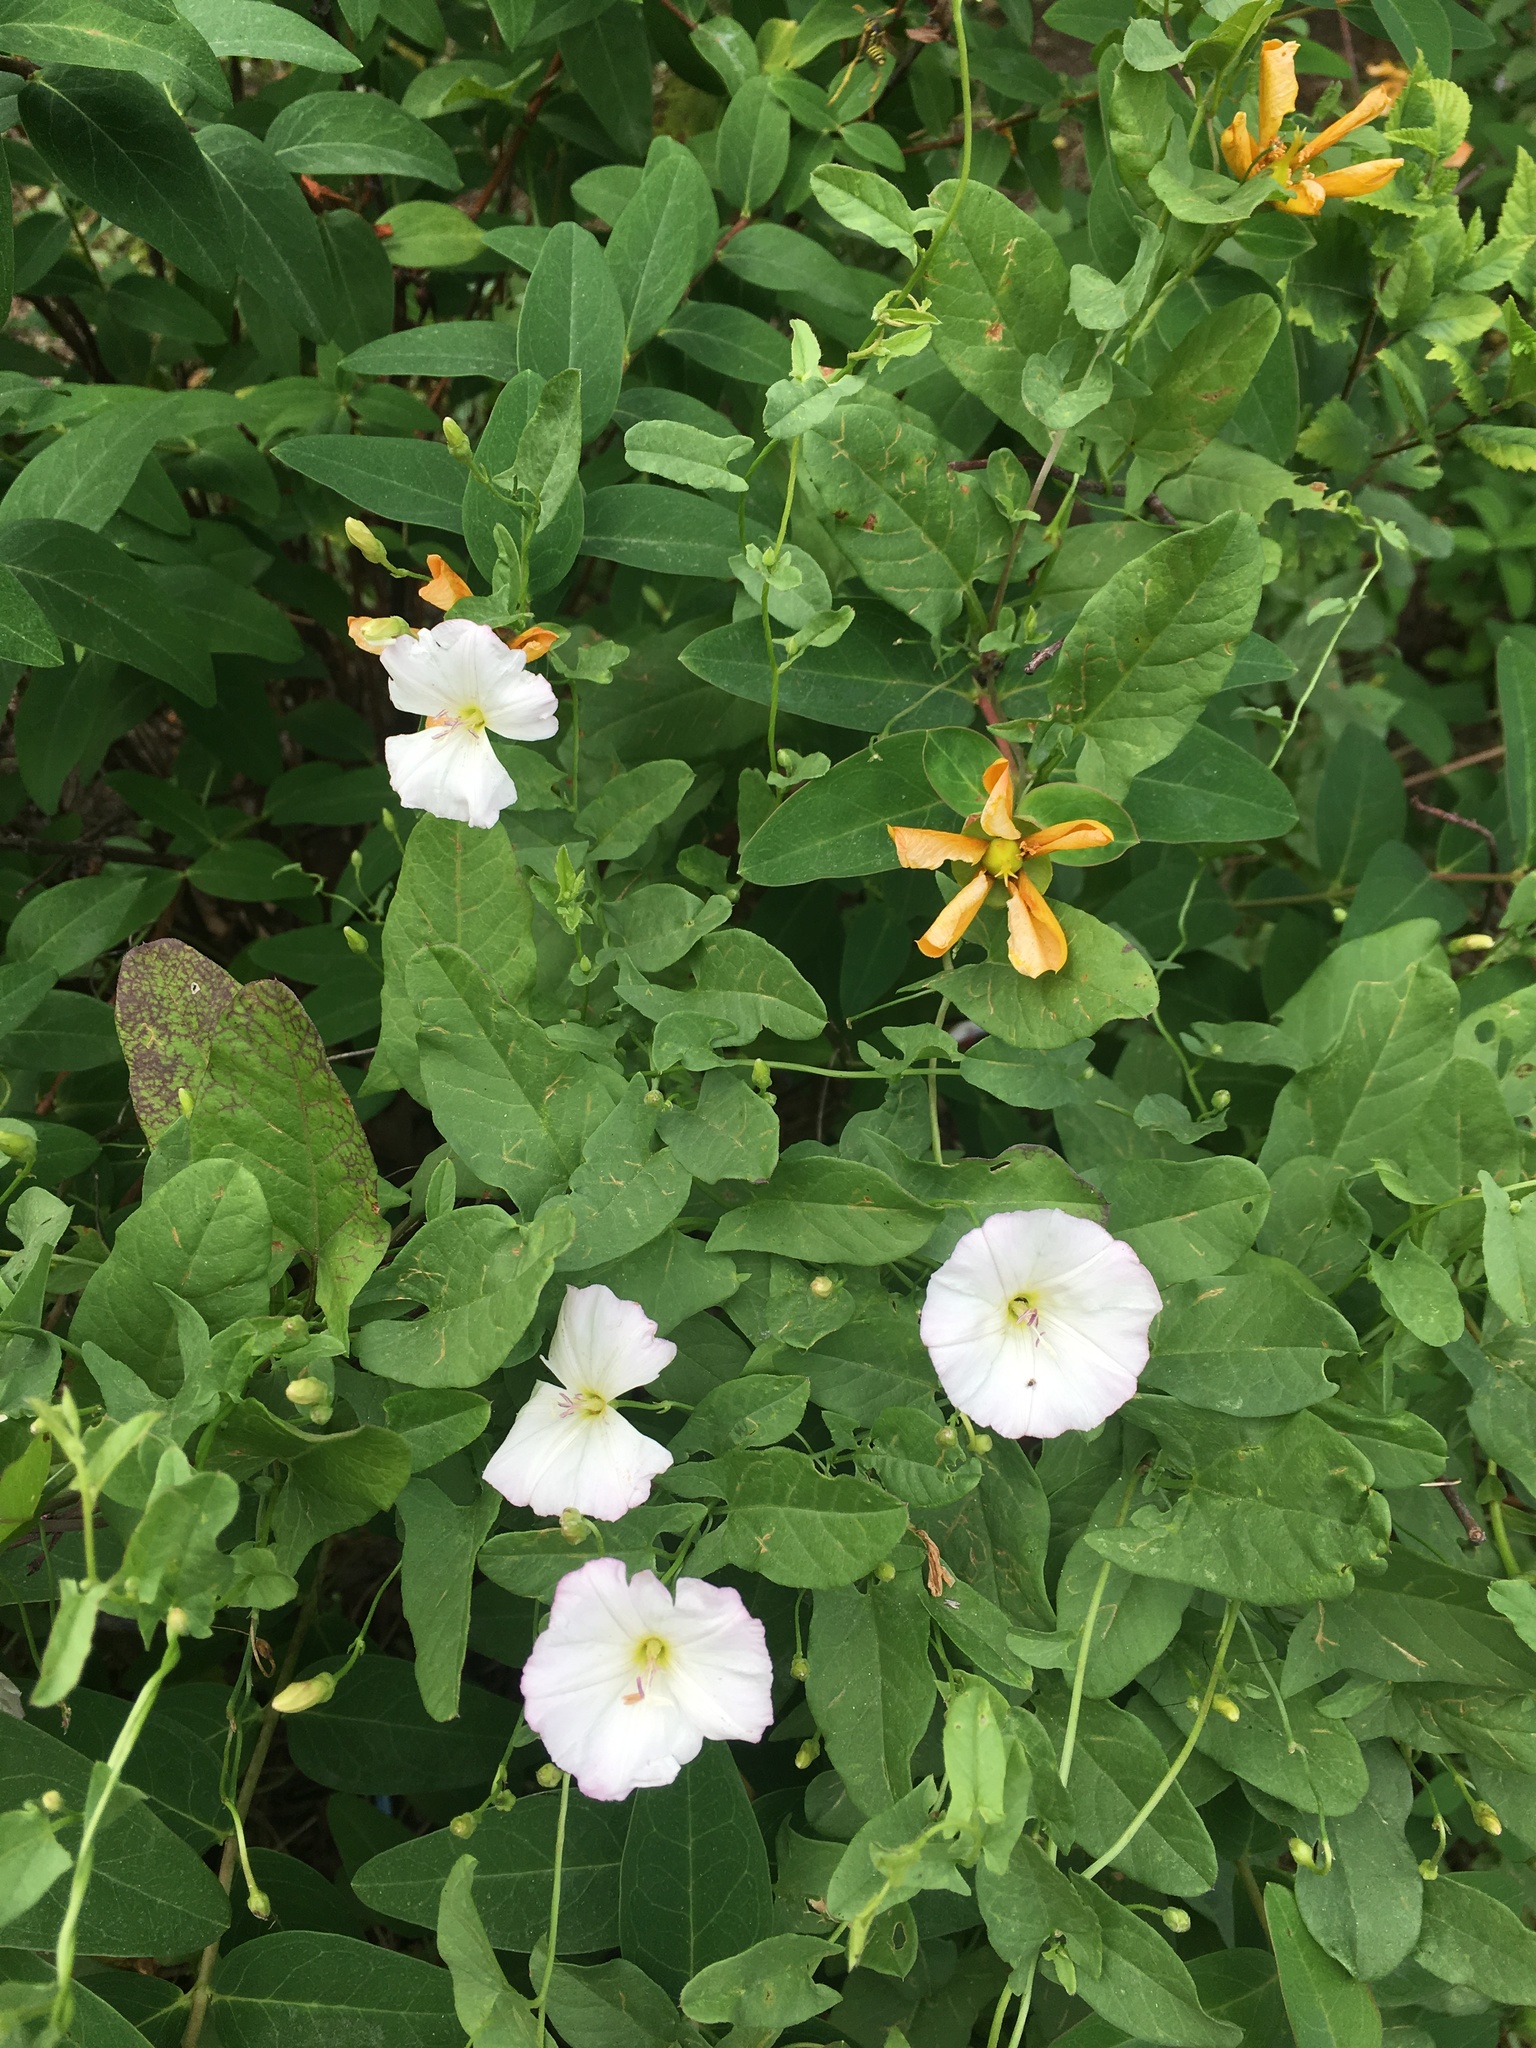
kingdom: Plantae
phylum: Tracheophyta
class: Magnoliopsida
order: Solanales
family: Convolvulaceae
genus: Convolvulus
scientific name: Convolvulus arvensis
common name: Field bindweed
